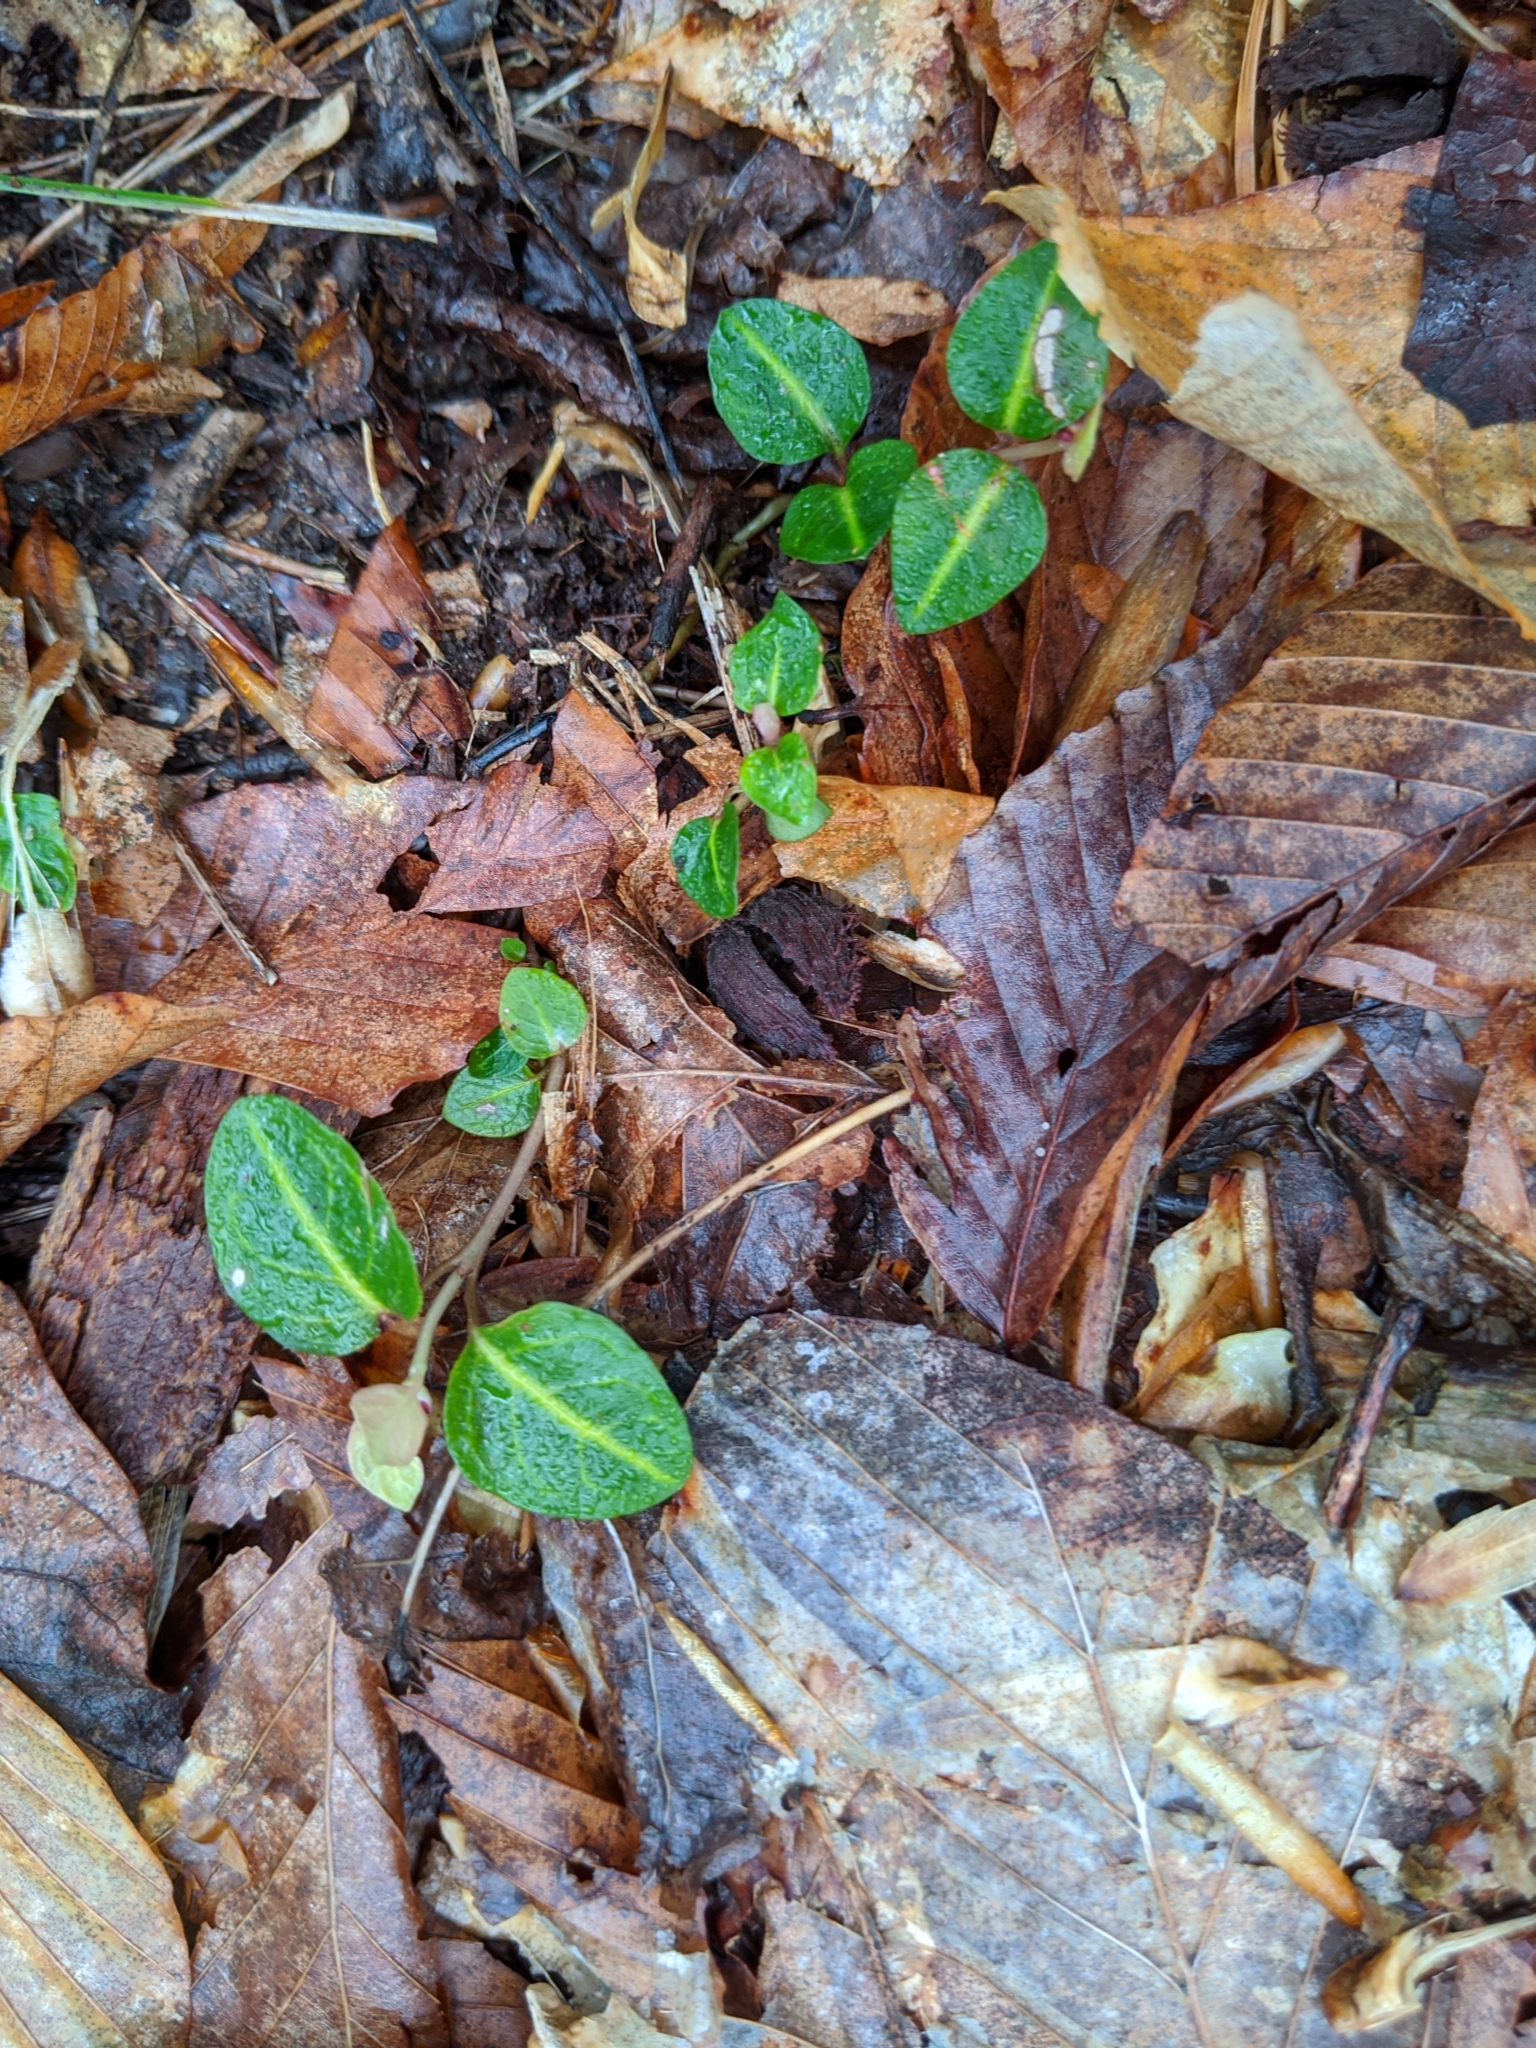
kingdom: Plantae
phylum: Tracheophyta
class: Magnoliopsida
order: Gentianales
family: Rubiaceae
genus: Mitchella
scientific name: Mitchella repens
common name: Partridge-berry
